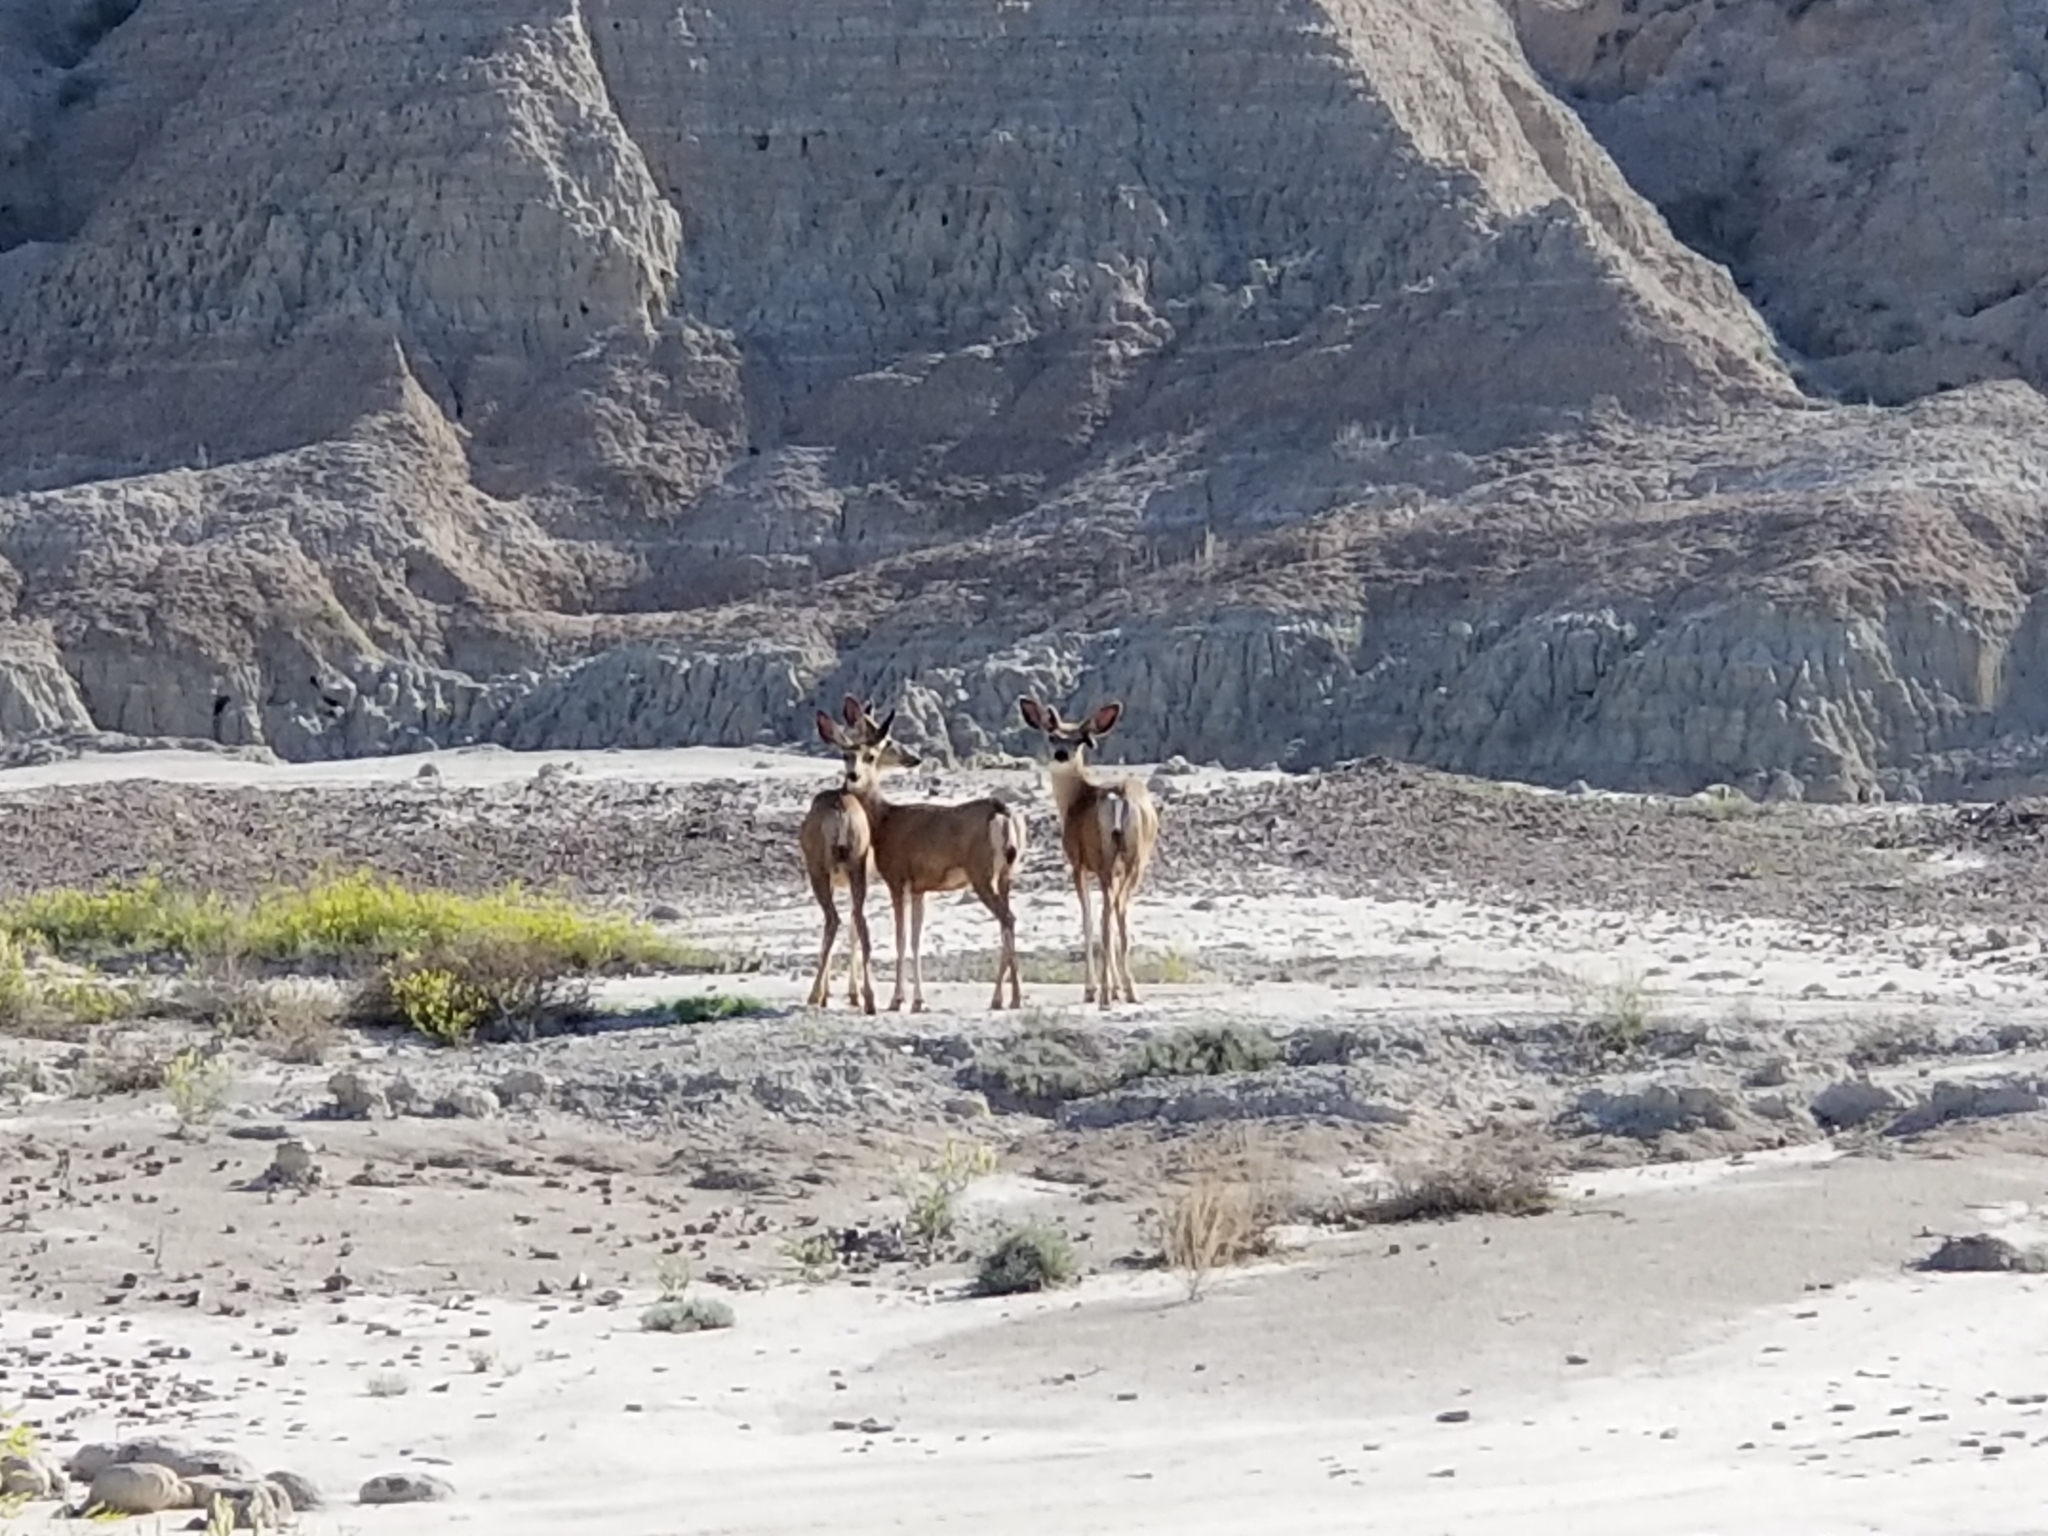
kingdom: Animalia
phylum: Chordata
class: Mammalia
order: Artiodactyla
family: Cervidae
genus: Odocoileus
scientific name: Odocoileus hemionus
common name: Mule deer
